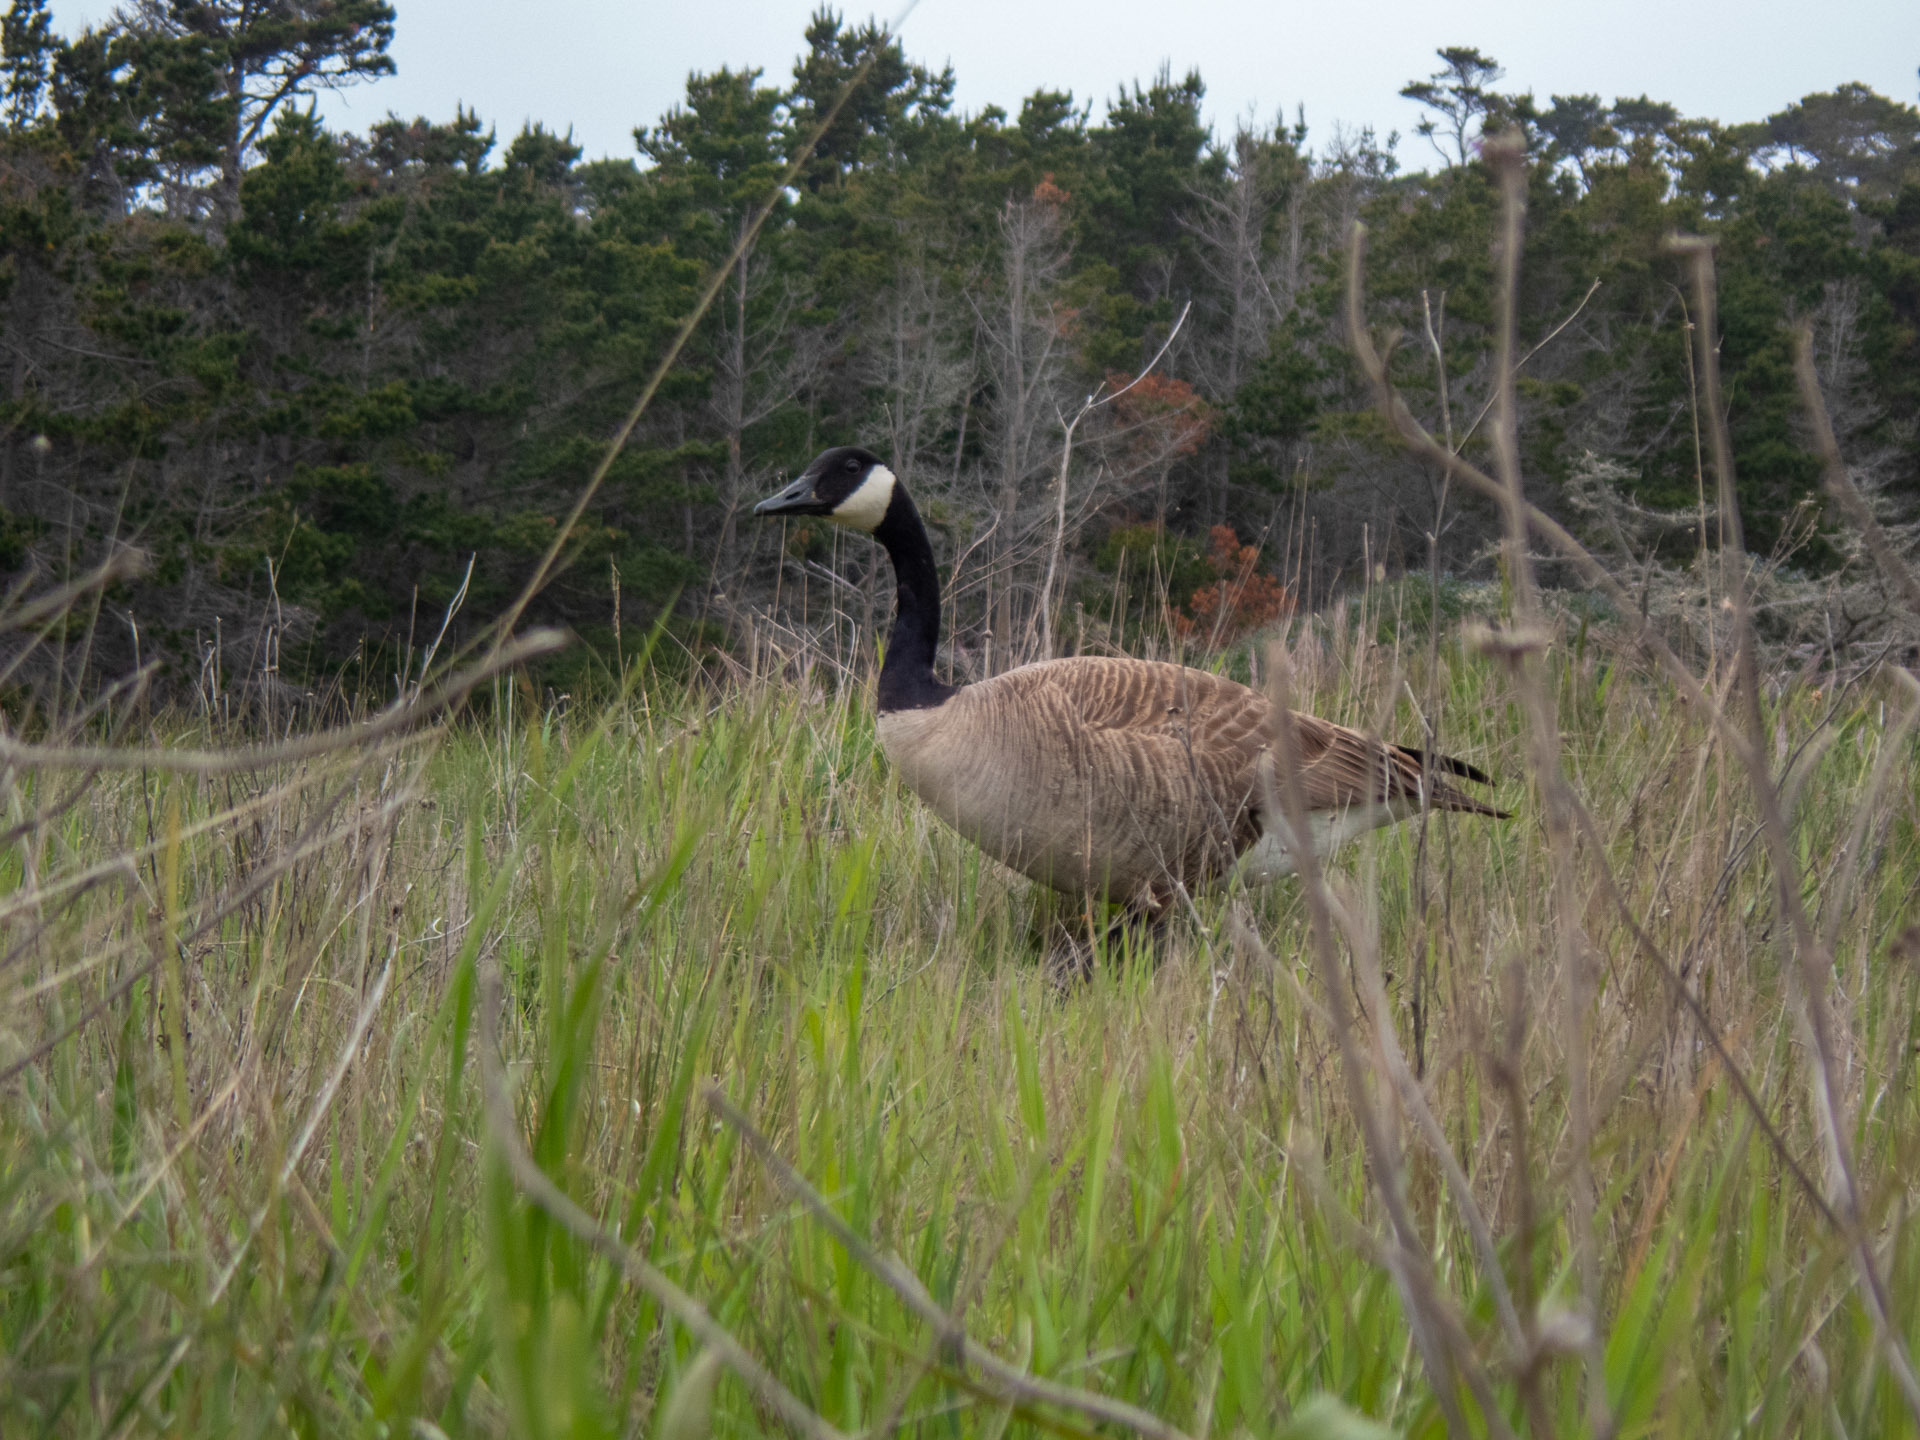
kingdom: Animalia
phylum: Chordata
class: Aves
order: Anseriformes
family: Anatidae
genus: Branta
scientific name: Branta canadensis
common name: Canada goose
